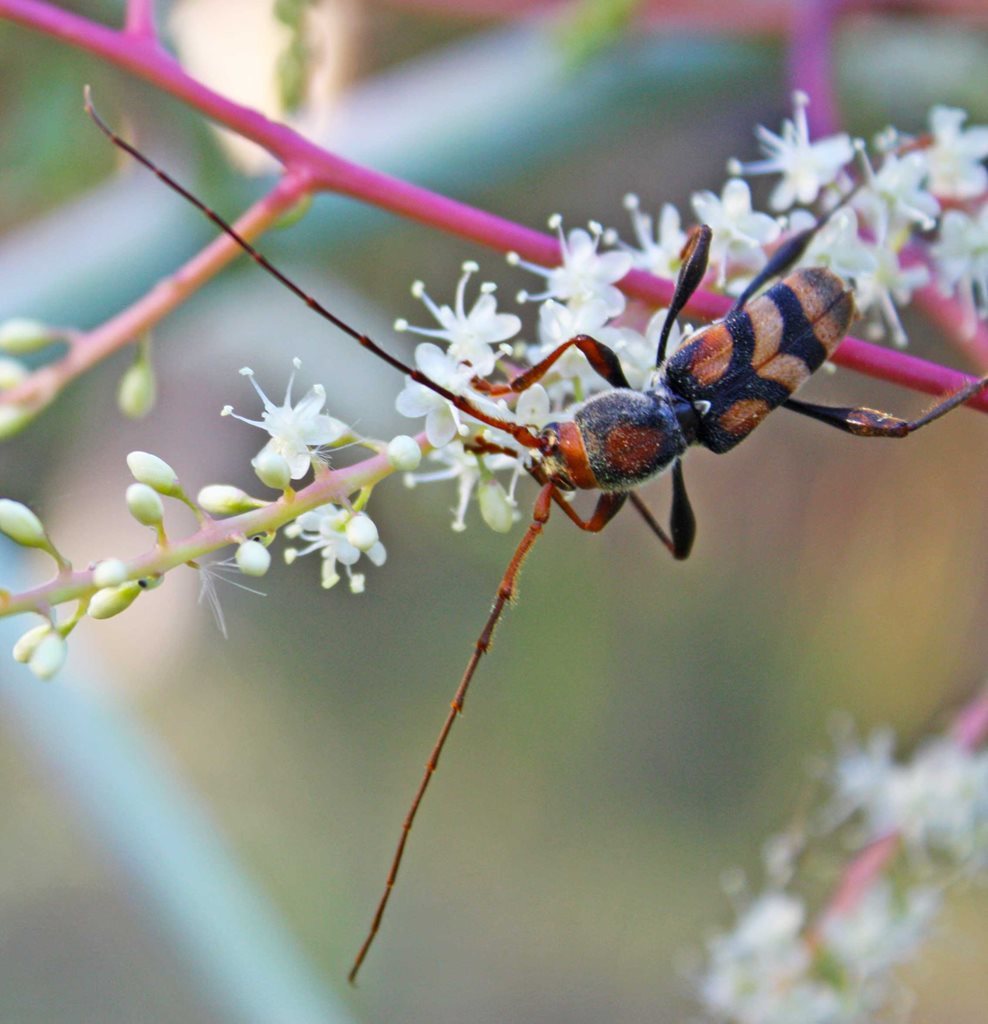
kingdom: Animalia
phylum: Arthropoda
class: Insecta
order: Coleoptera
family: Cerambycidae
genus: Aridaeus
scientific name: Aridaeus thoracicus
